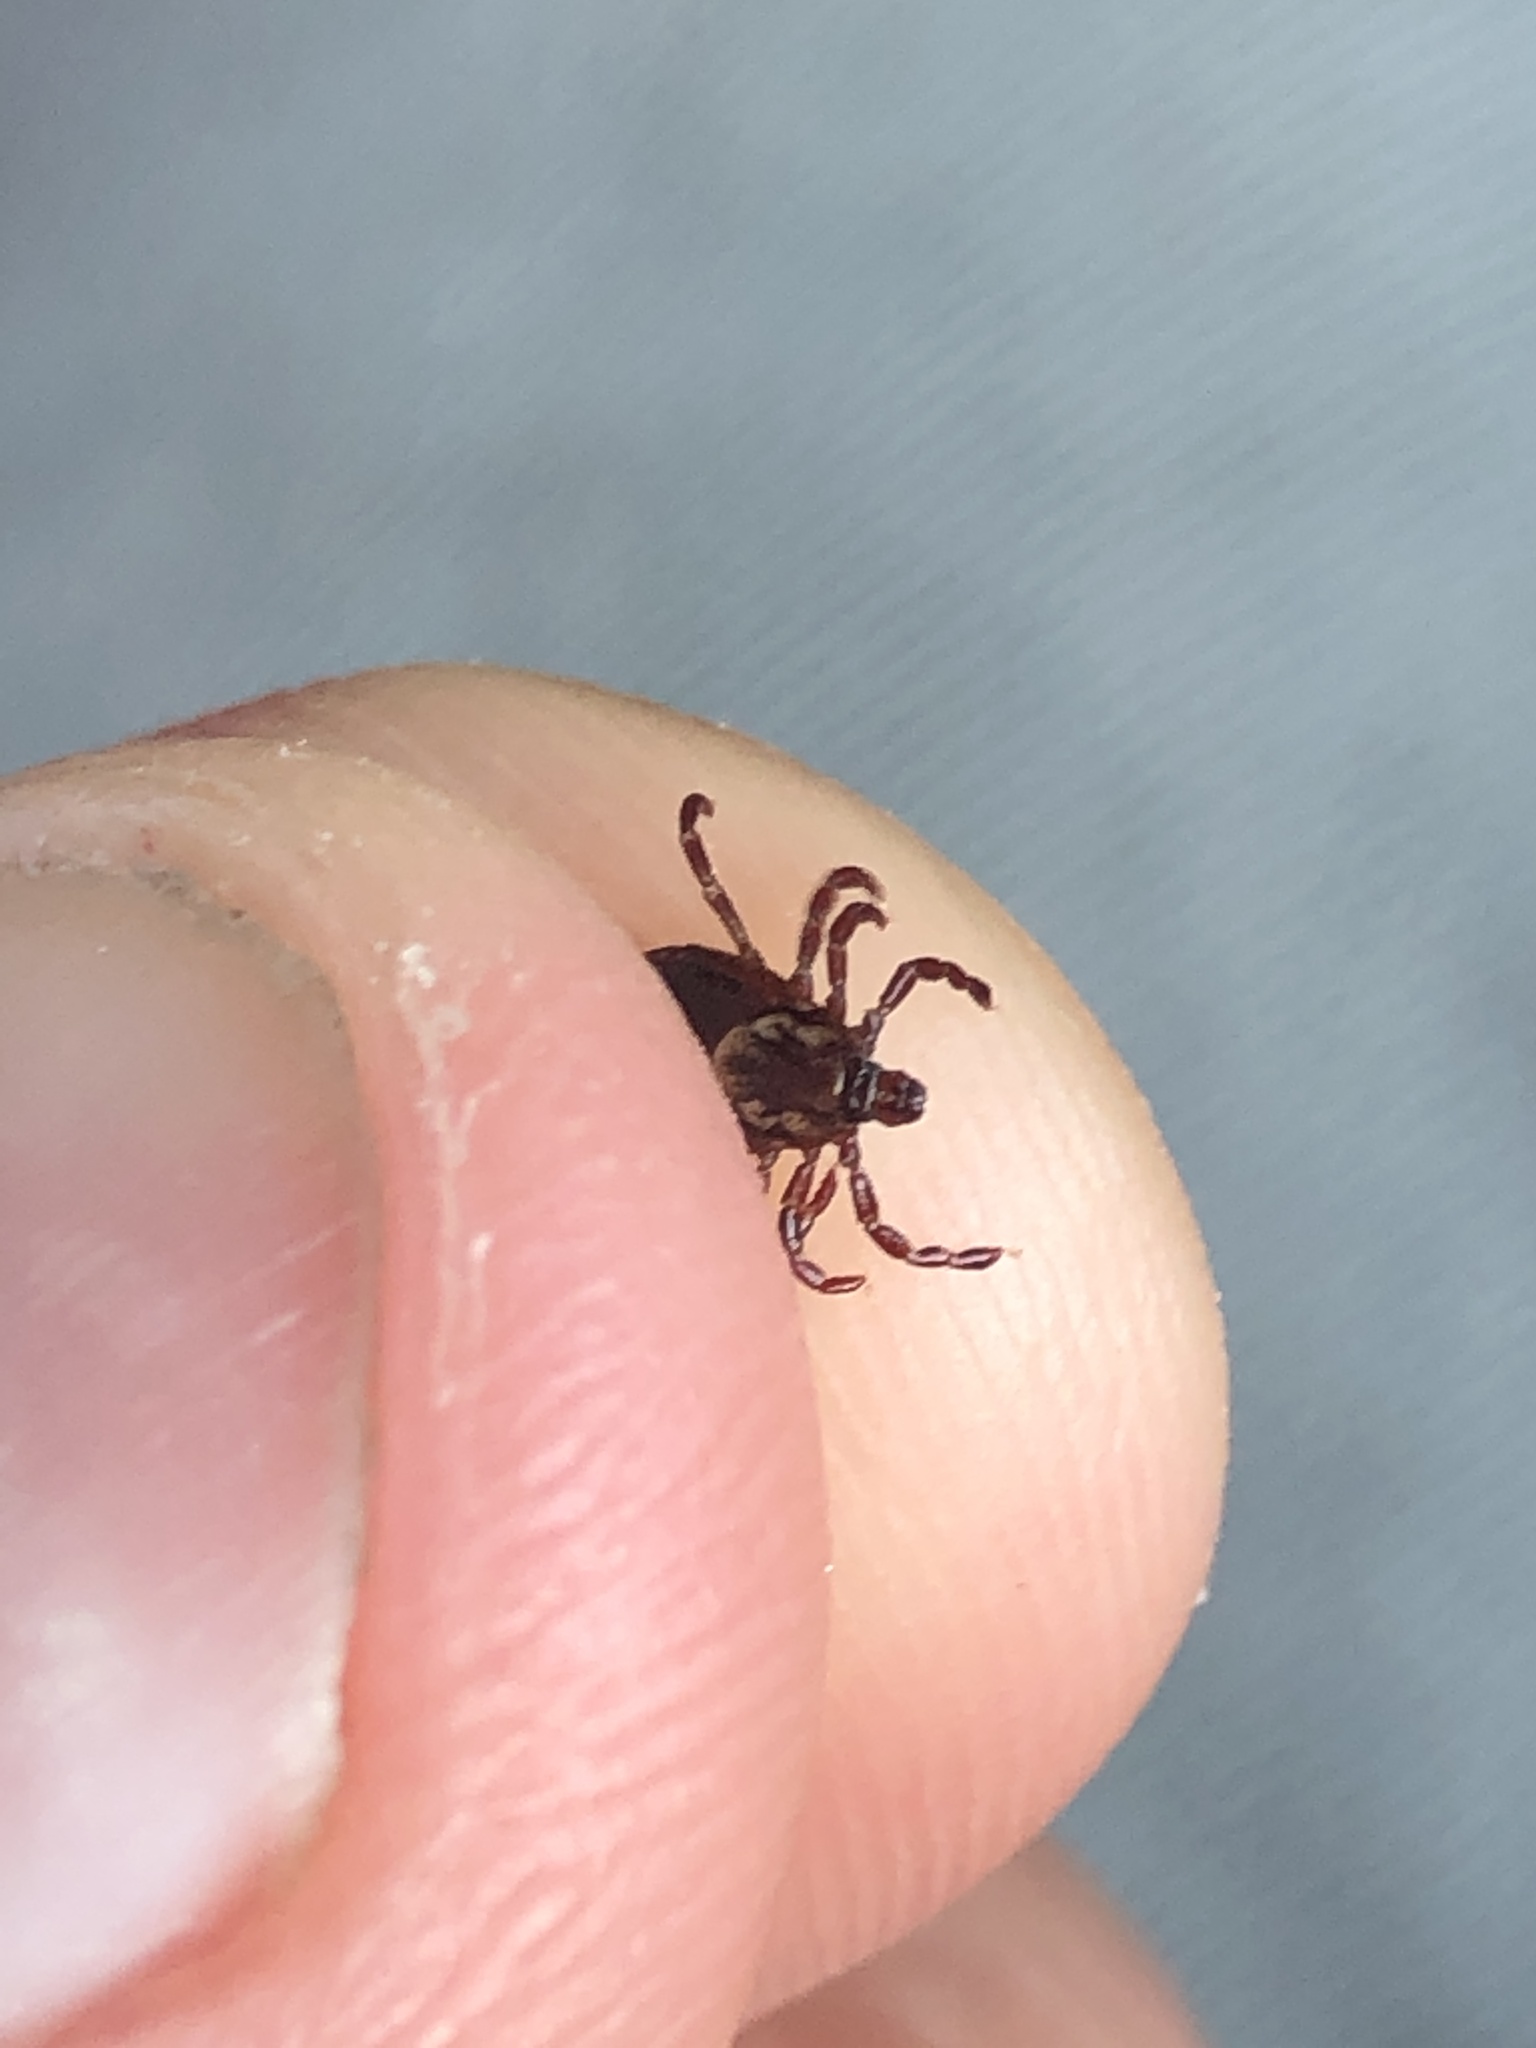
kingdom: Animalia
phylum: Arthropoda
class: Arachnida
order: Ixodida
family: Ixodidae
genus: Dermacentor
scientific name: Dermacentor variabilis
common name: American dog tick
